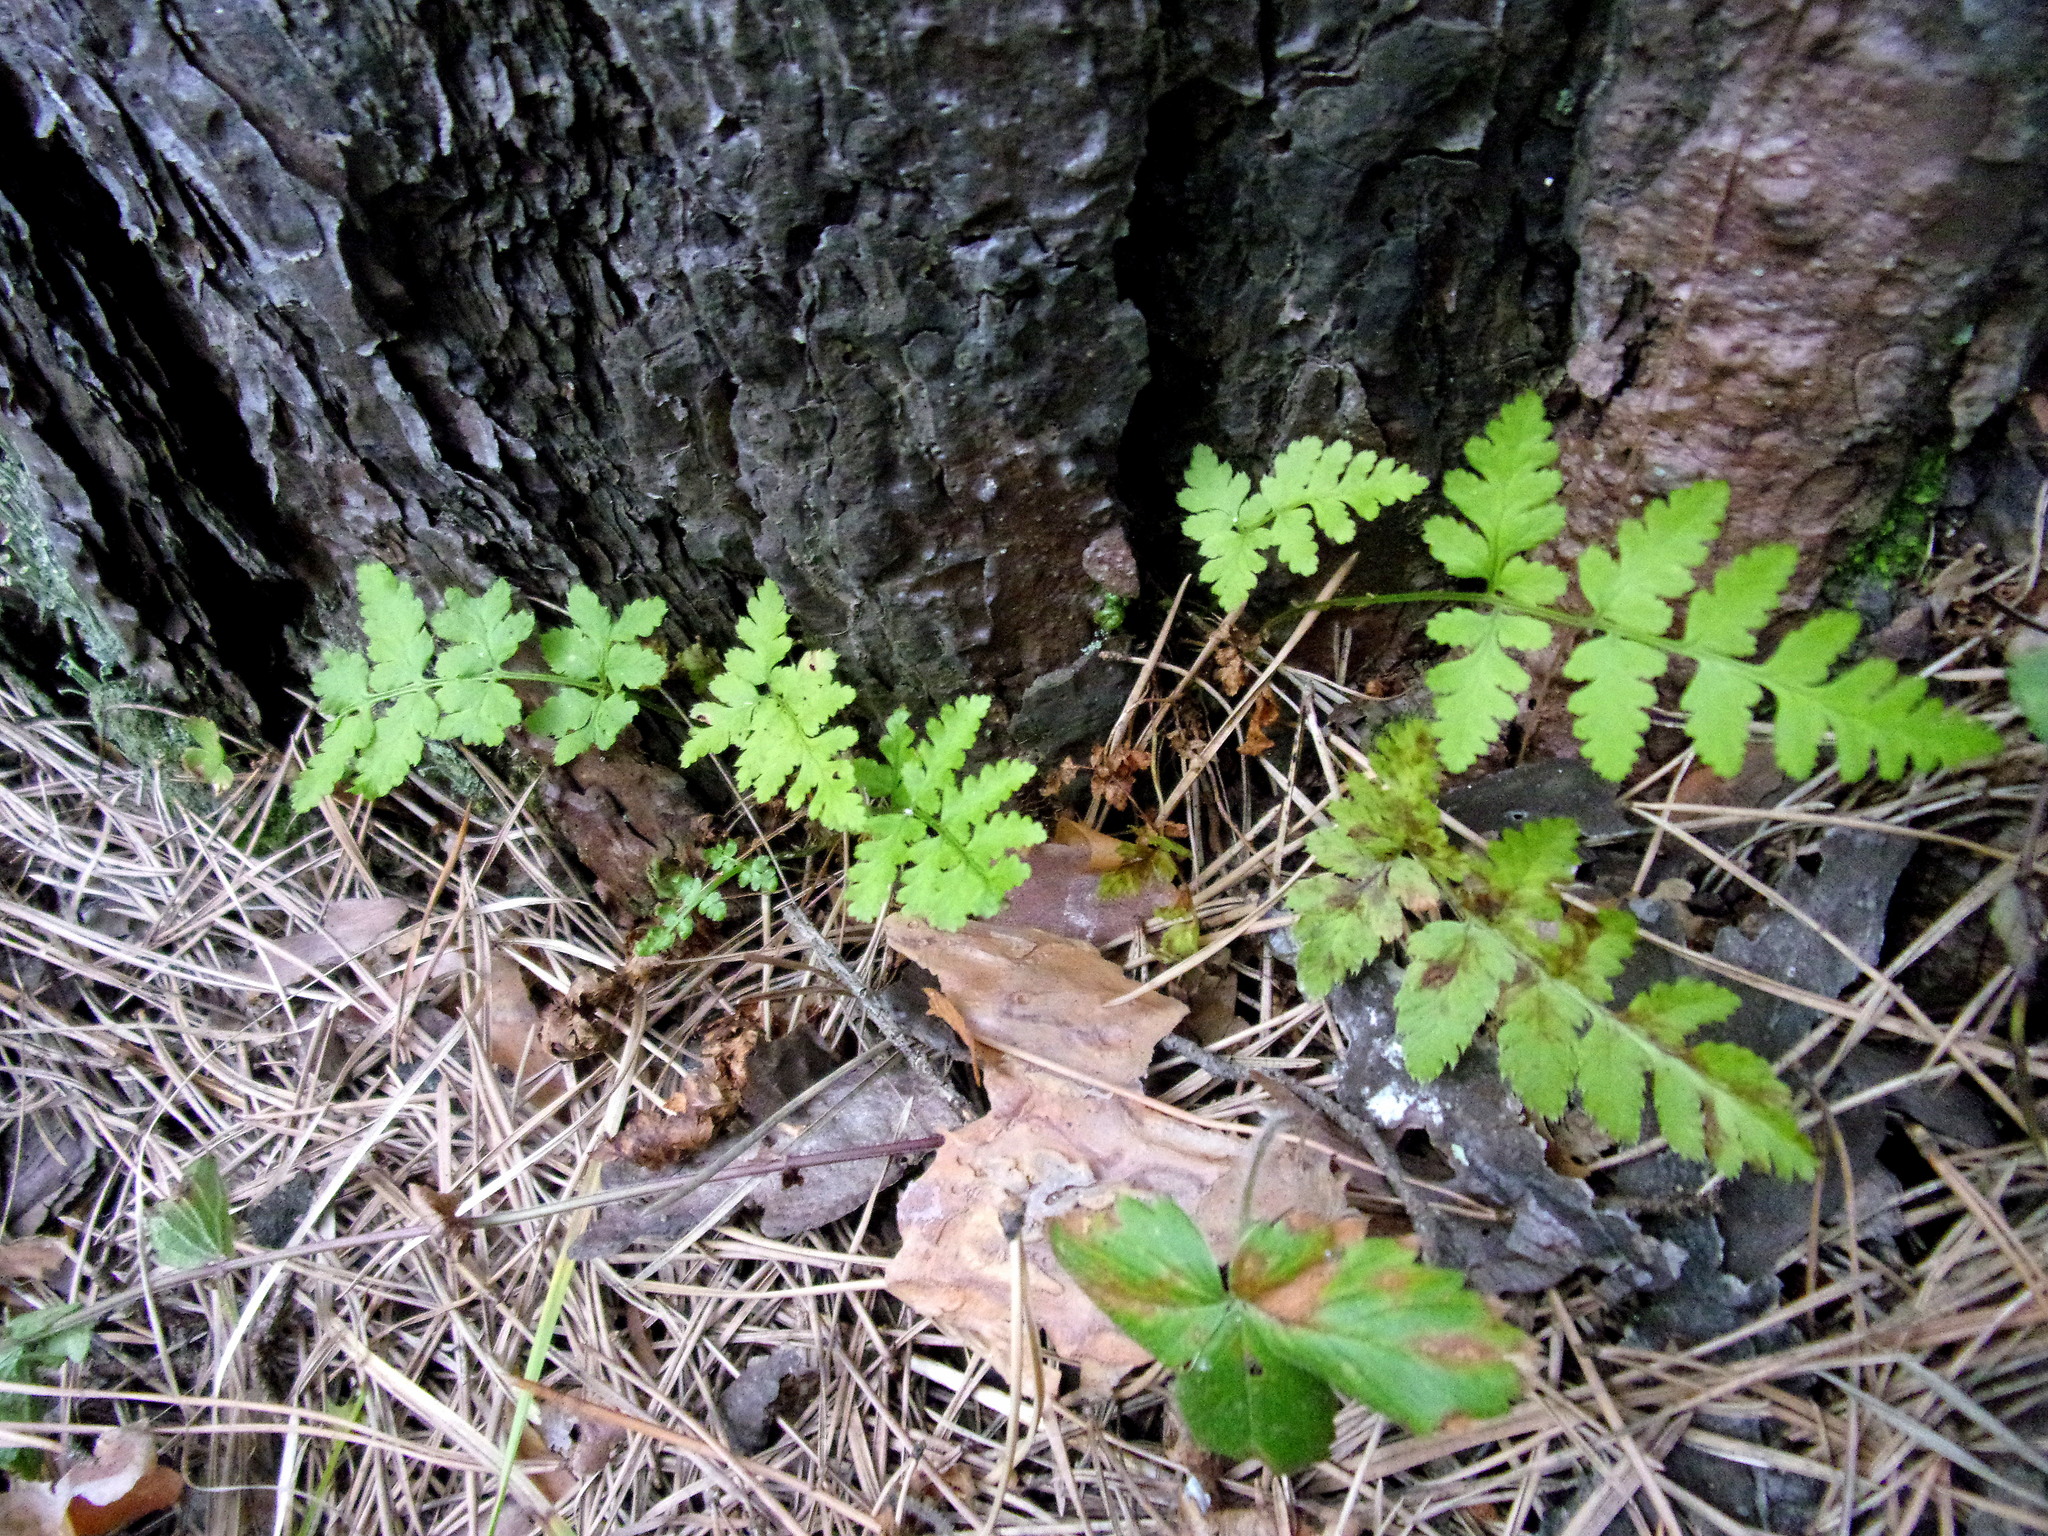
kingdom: Plantae
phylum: Tracheophyta
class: Polypodiopsida
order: Polypodiales
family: Cystopteridaceae
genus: Cystopteris
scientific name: Cystopteris fragilis
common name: Brittle bladder fern
